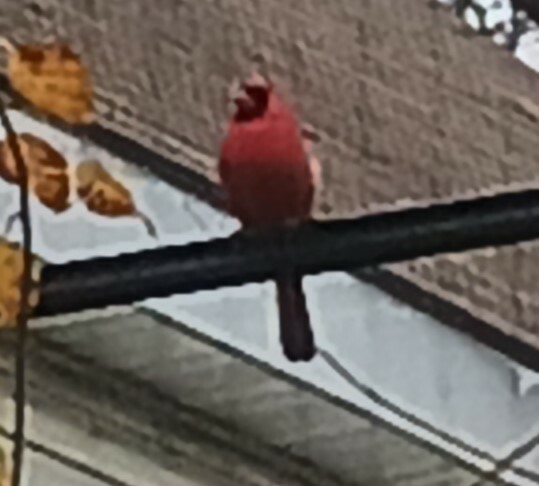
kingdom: Animalia
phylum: Chordata
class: Aves
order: Passeriformes
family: Cardinalidae
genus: Cardinalis
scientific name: Cardinalis cardinalis
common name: Northern cardinal
